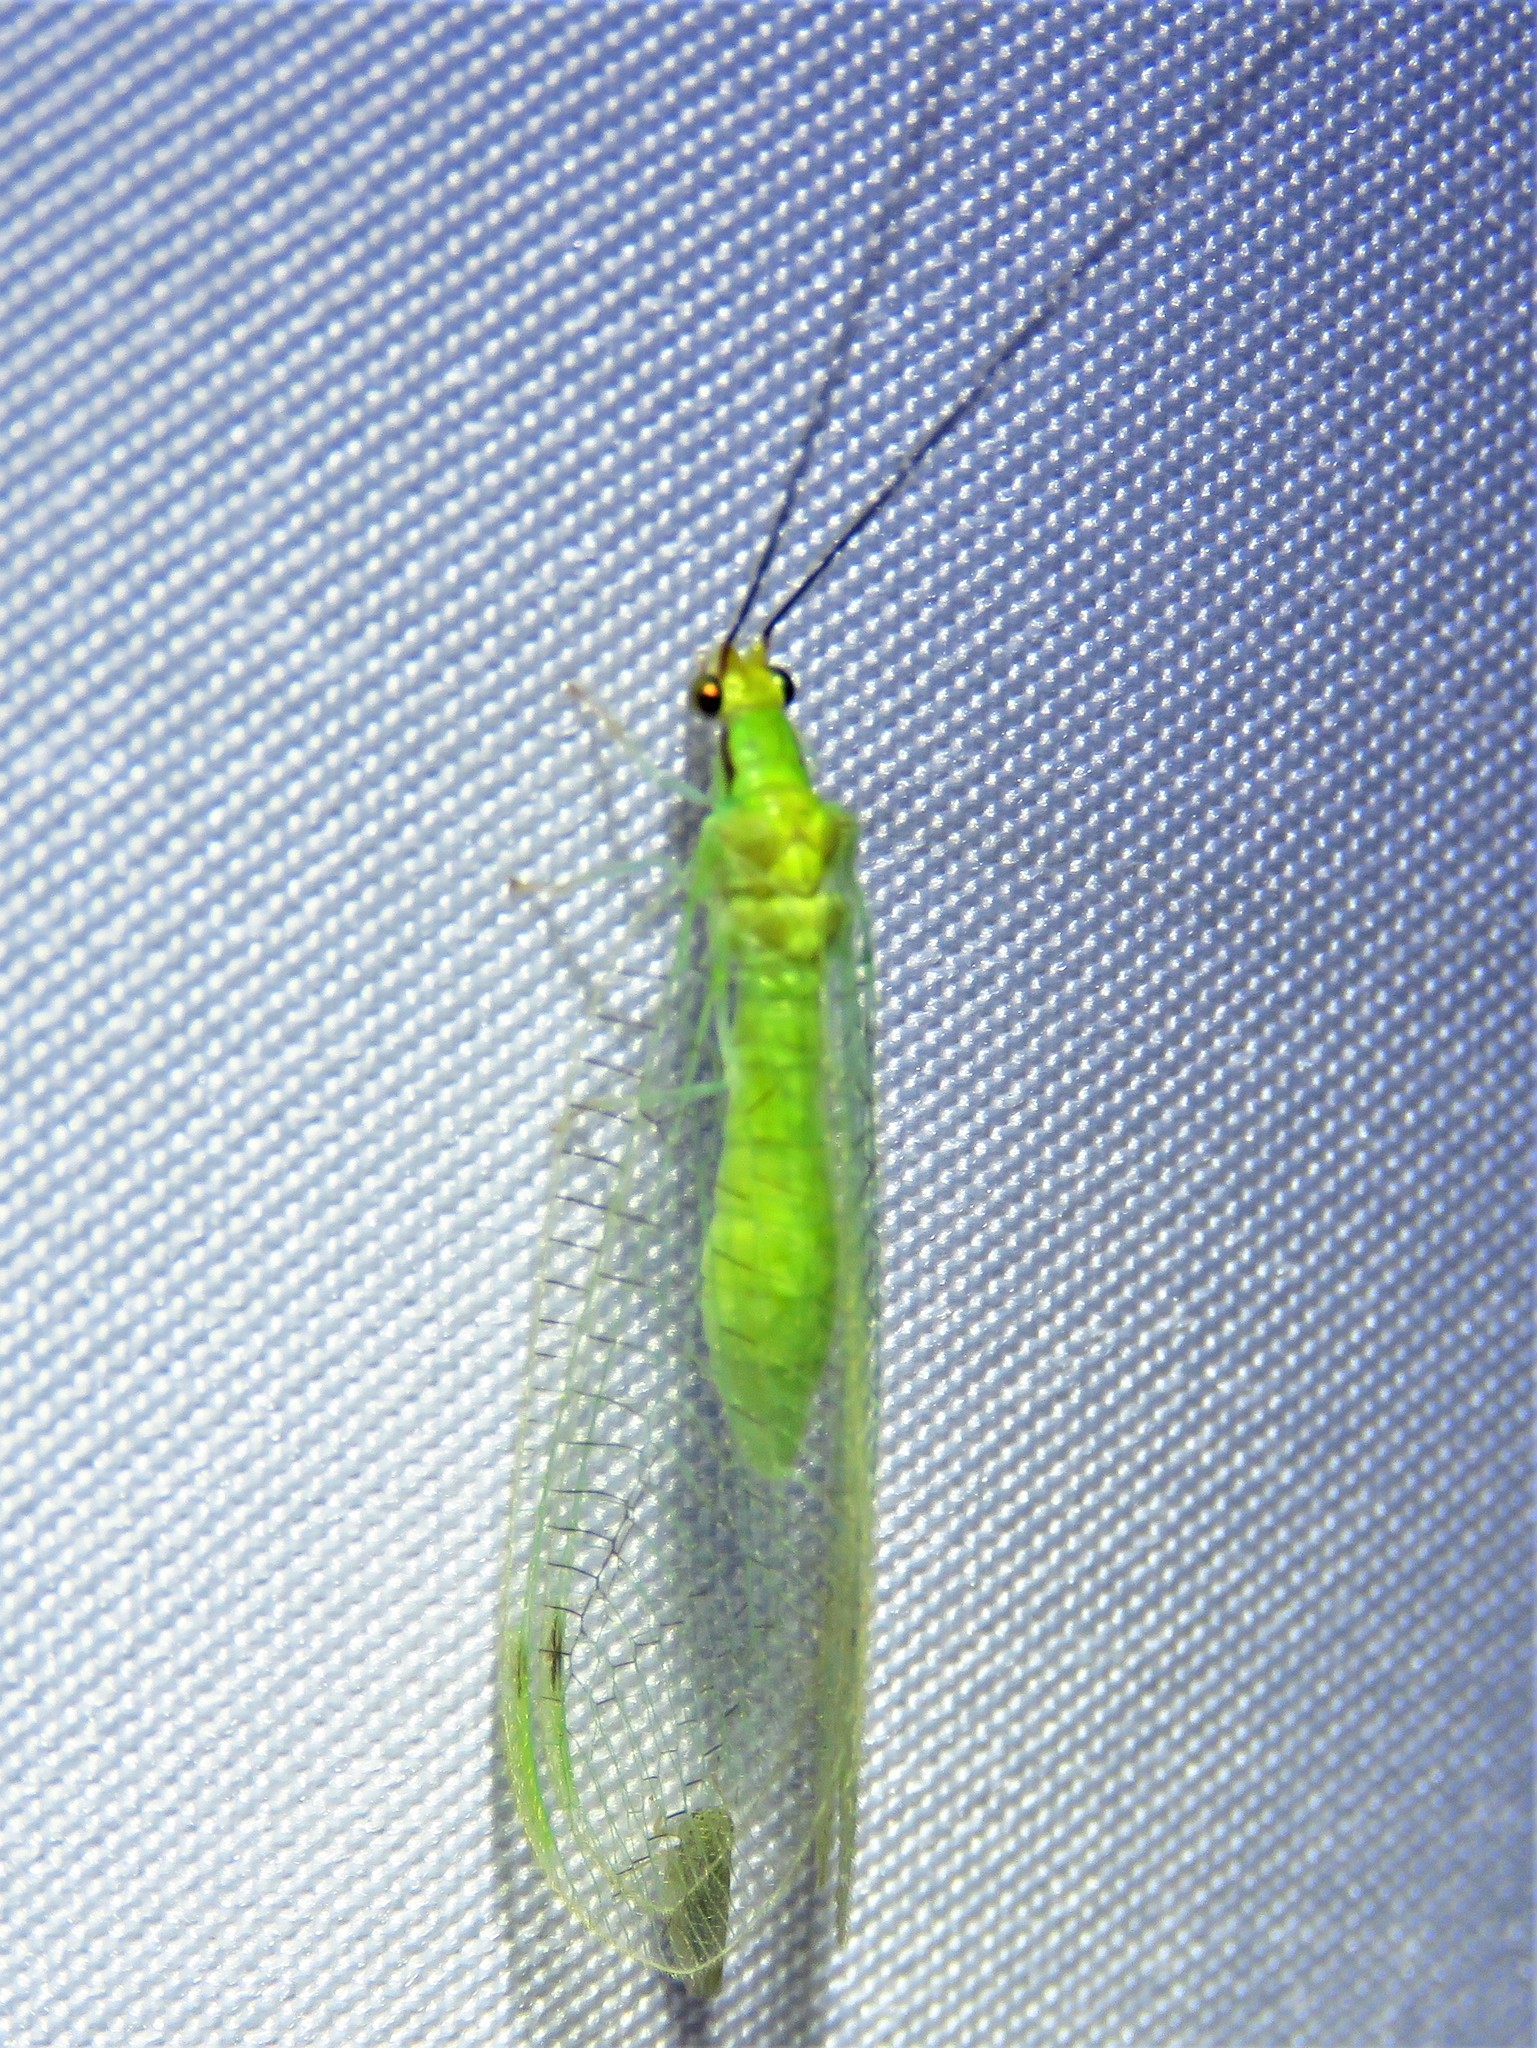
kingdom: Animalia
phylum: Arthropoda
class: Insecta
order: Neuroptera
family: Chrysopidae
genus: Leucochrysa
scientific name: Leucochrysa pavida
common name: Lichen-carrying green lacewing
